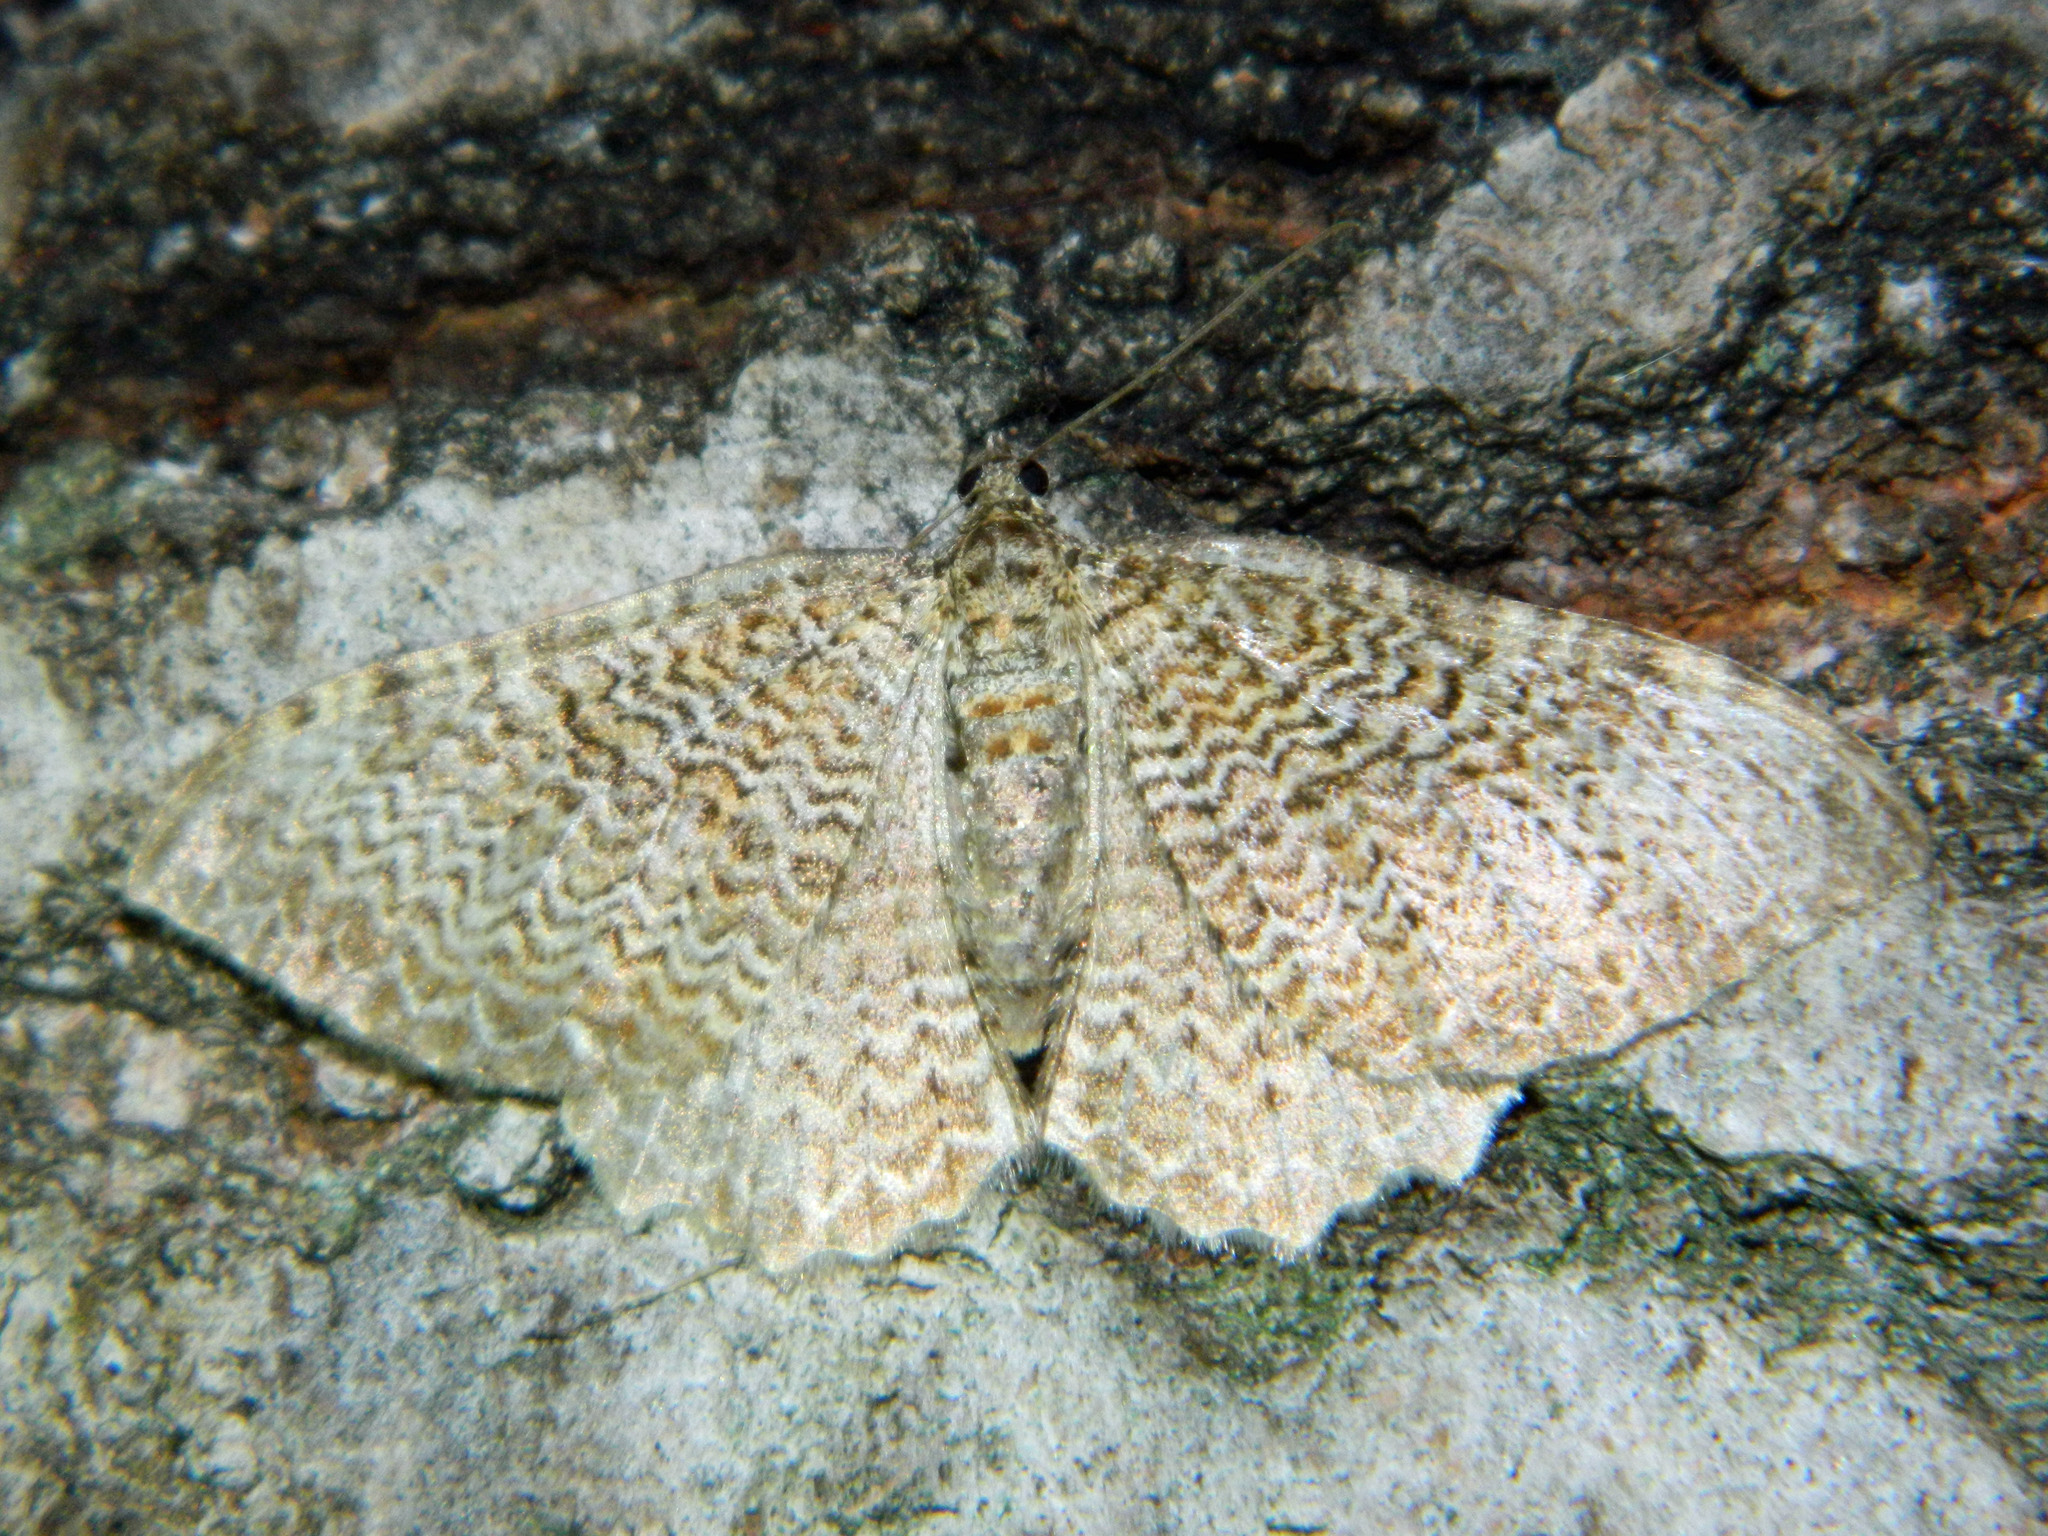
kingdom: Animalia
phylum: Arthropoda
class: Insecta
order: Lepidoptera
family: Geometridae
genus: Rheumaptera
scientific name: Rheumaptera
